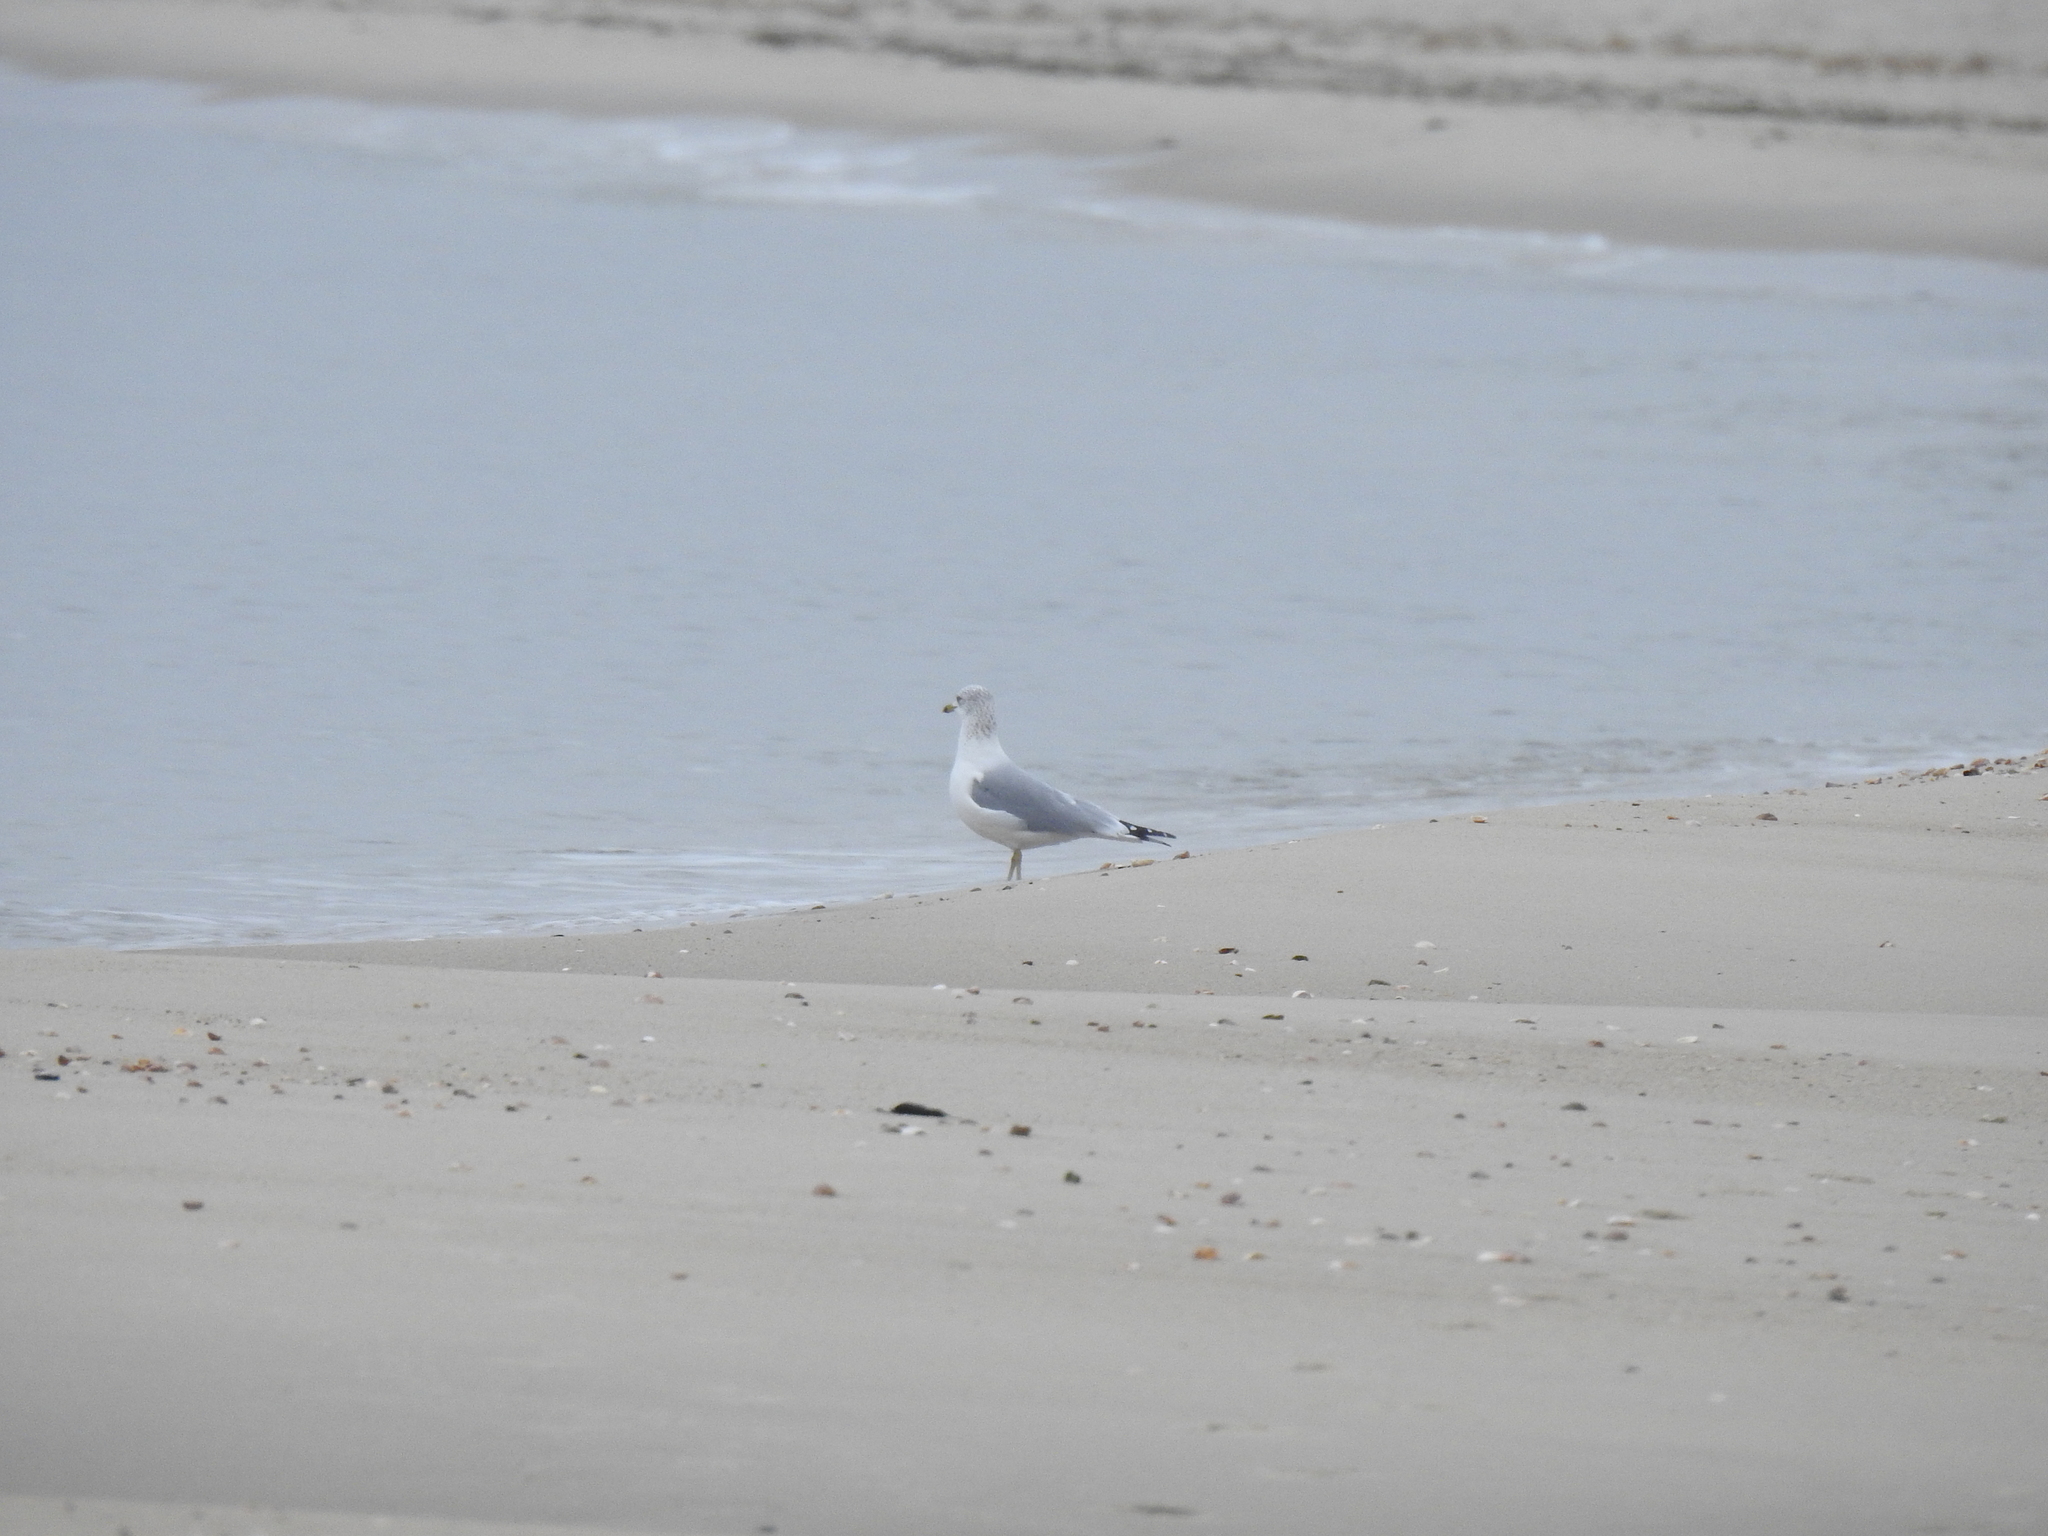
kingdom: Animalia
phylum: Chordata
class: Aves
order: Charadriiformes
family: Laridae
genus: Larus
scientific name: Larus delawarensis
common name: Ring-billed gull
